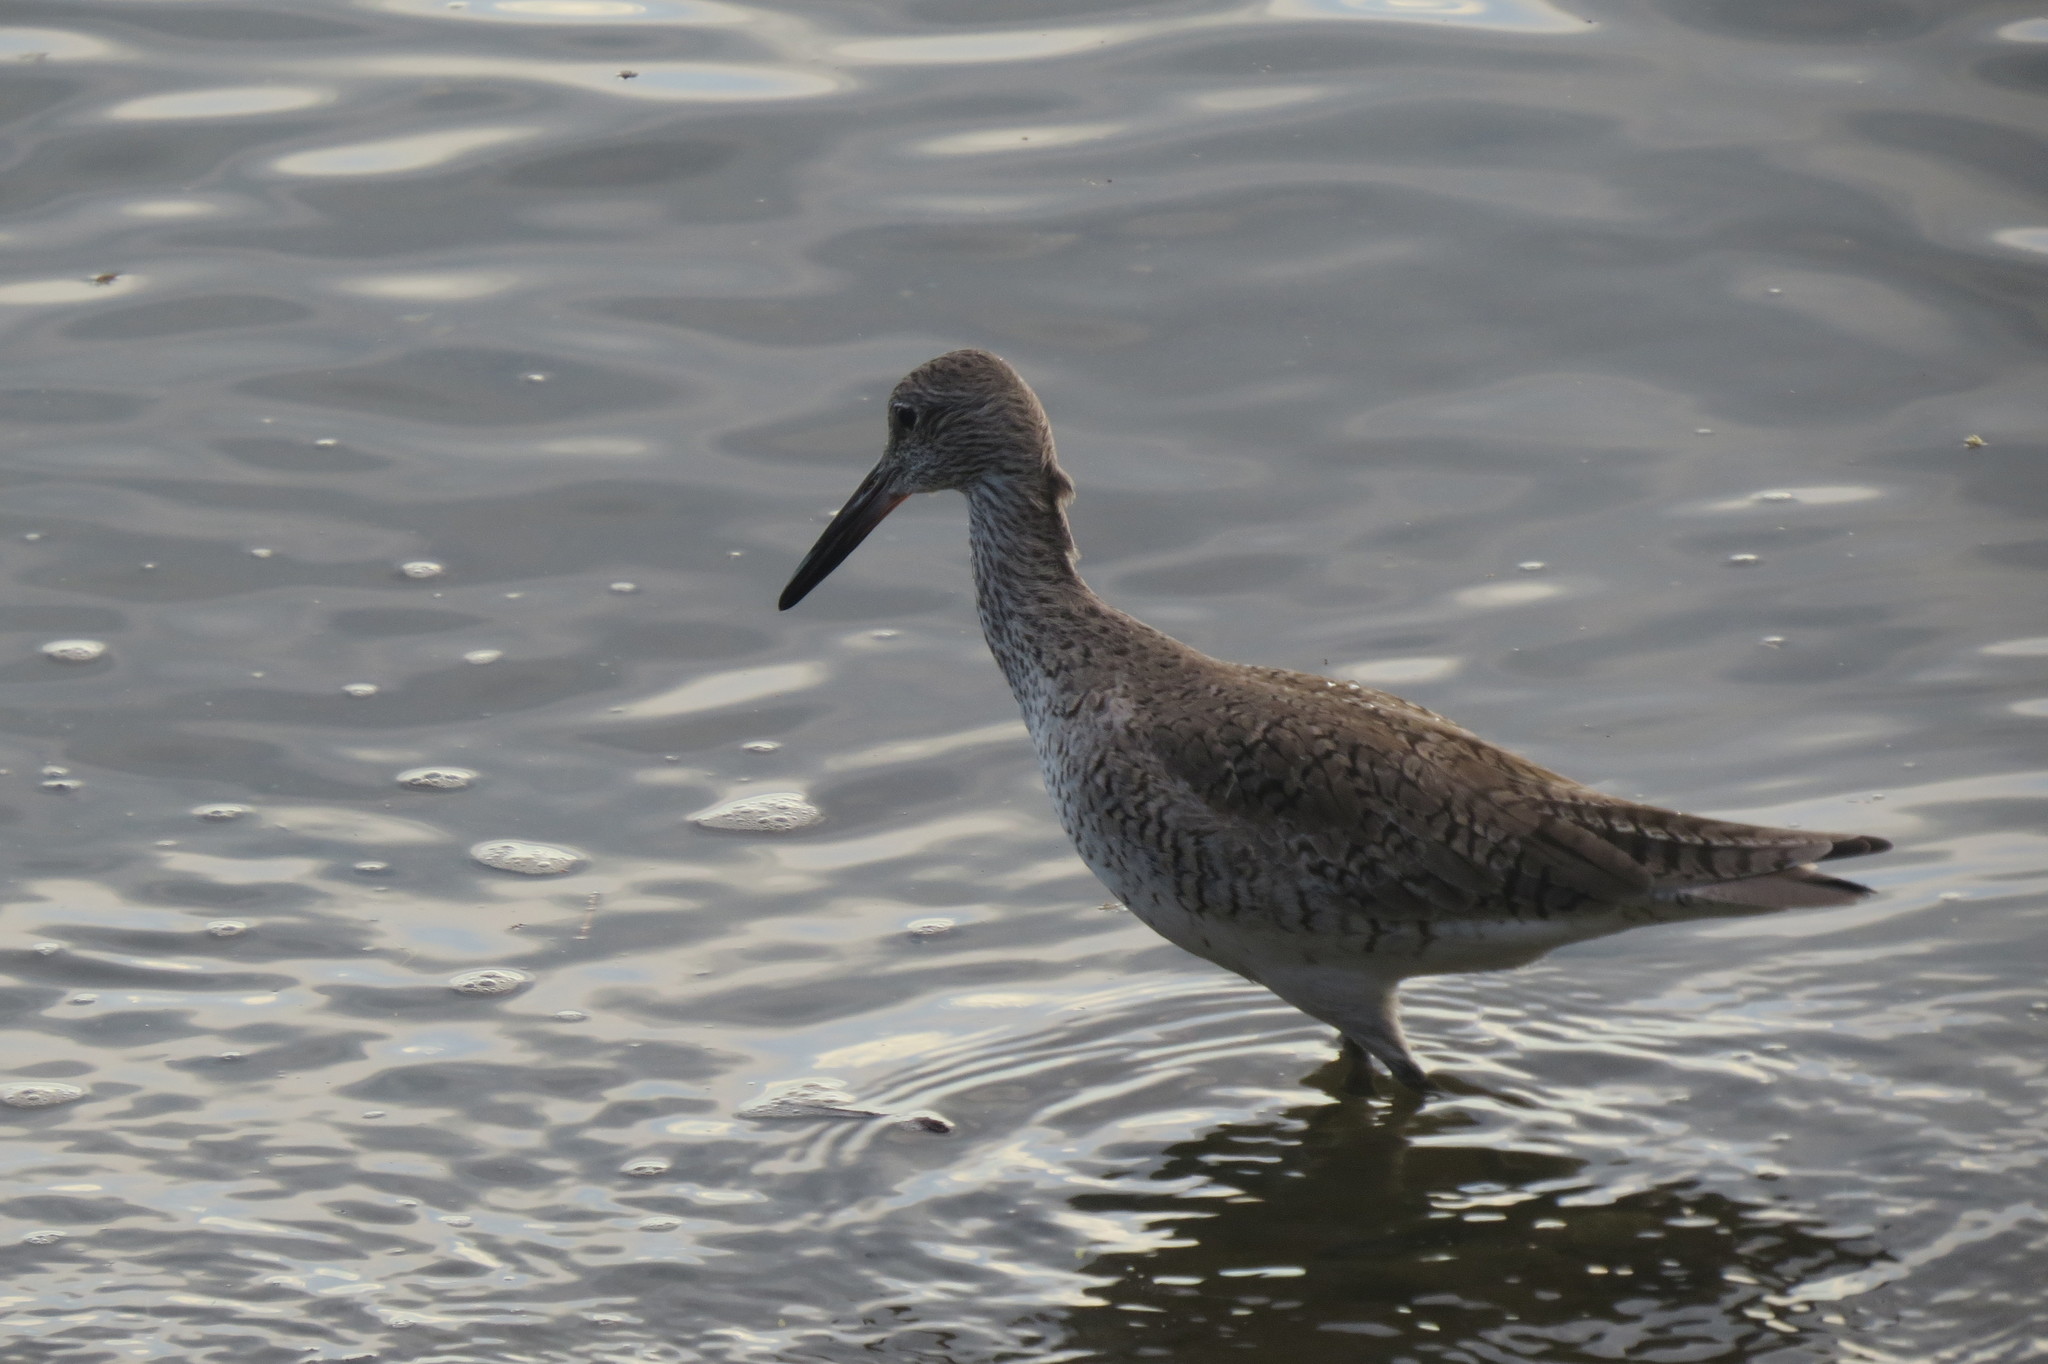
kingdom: Animalia
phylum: Chordata
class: Aves
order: Charadriiformes
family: Scolopacidae
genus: Tringa
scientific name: Tringa semipalmata
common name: Willet
